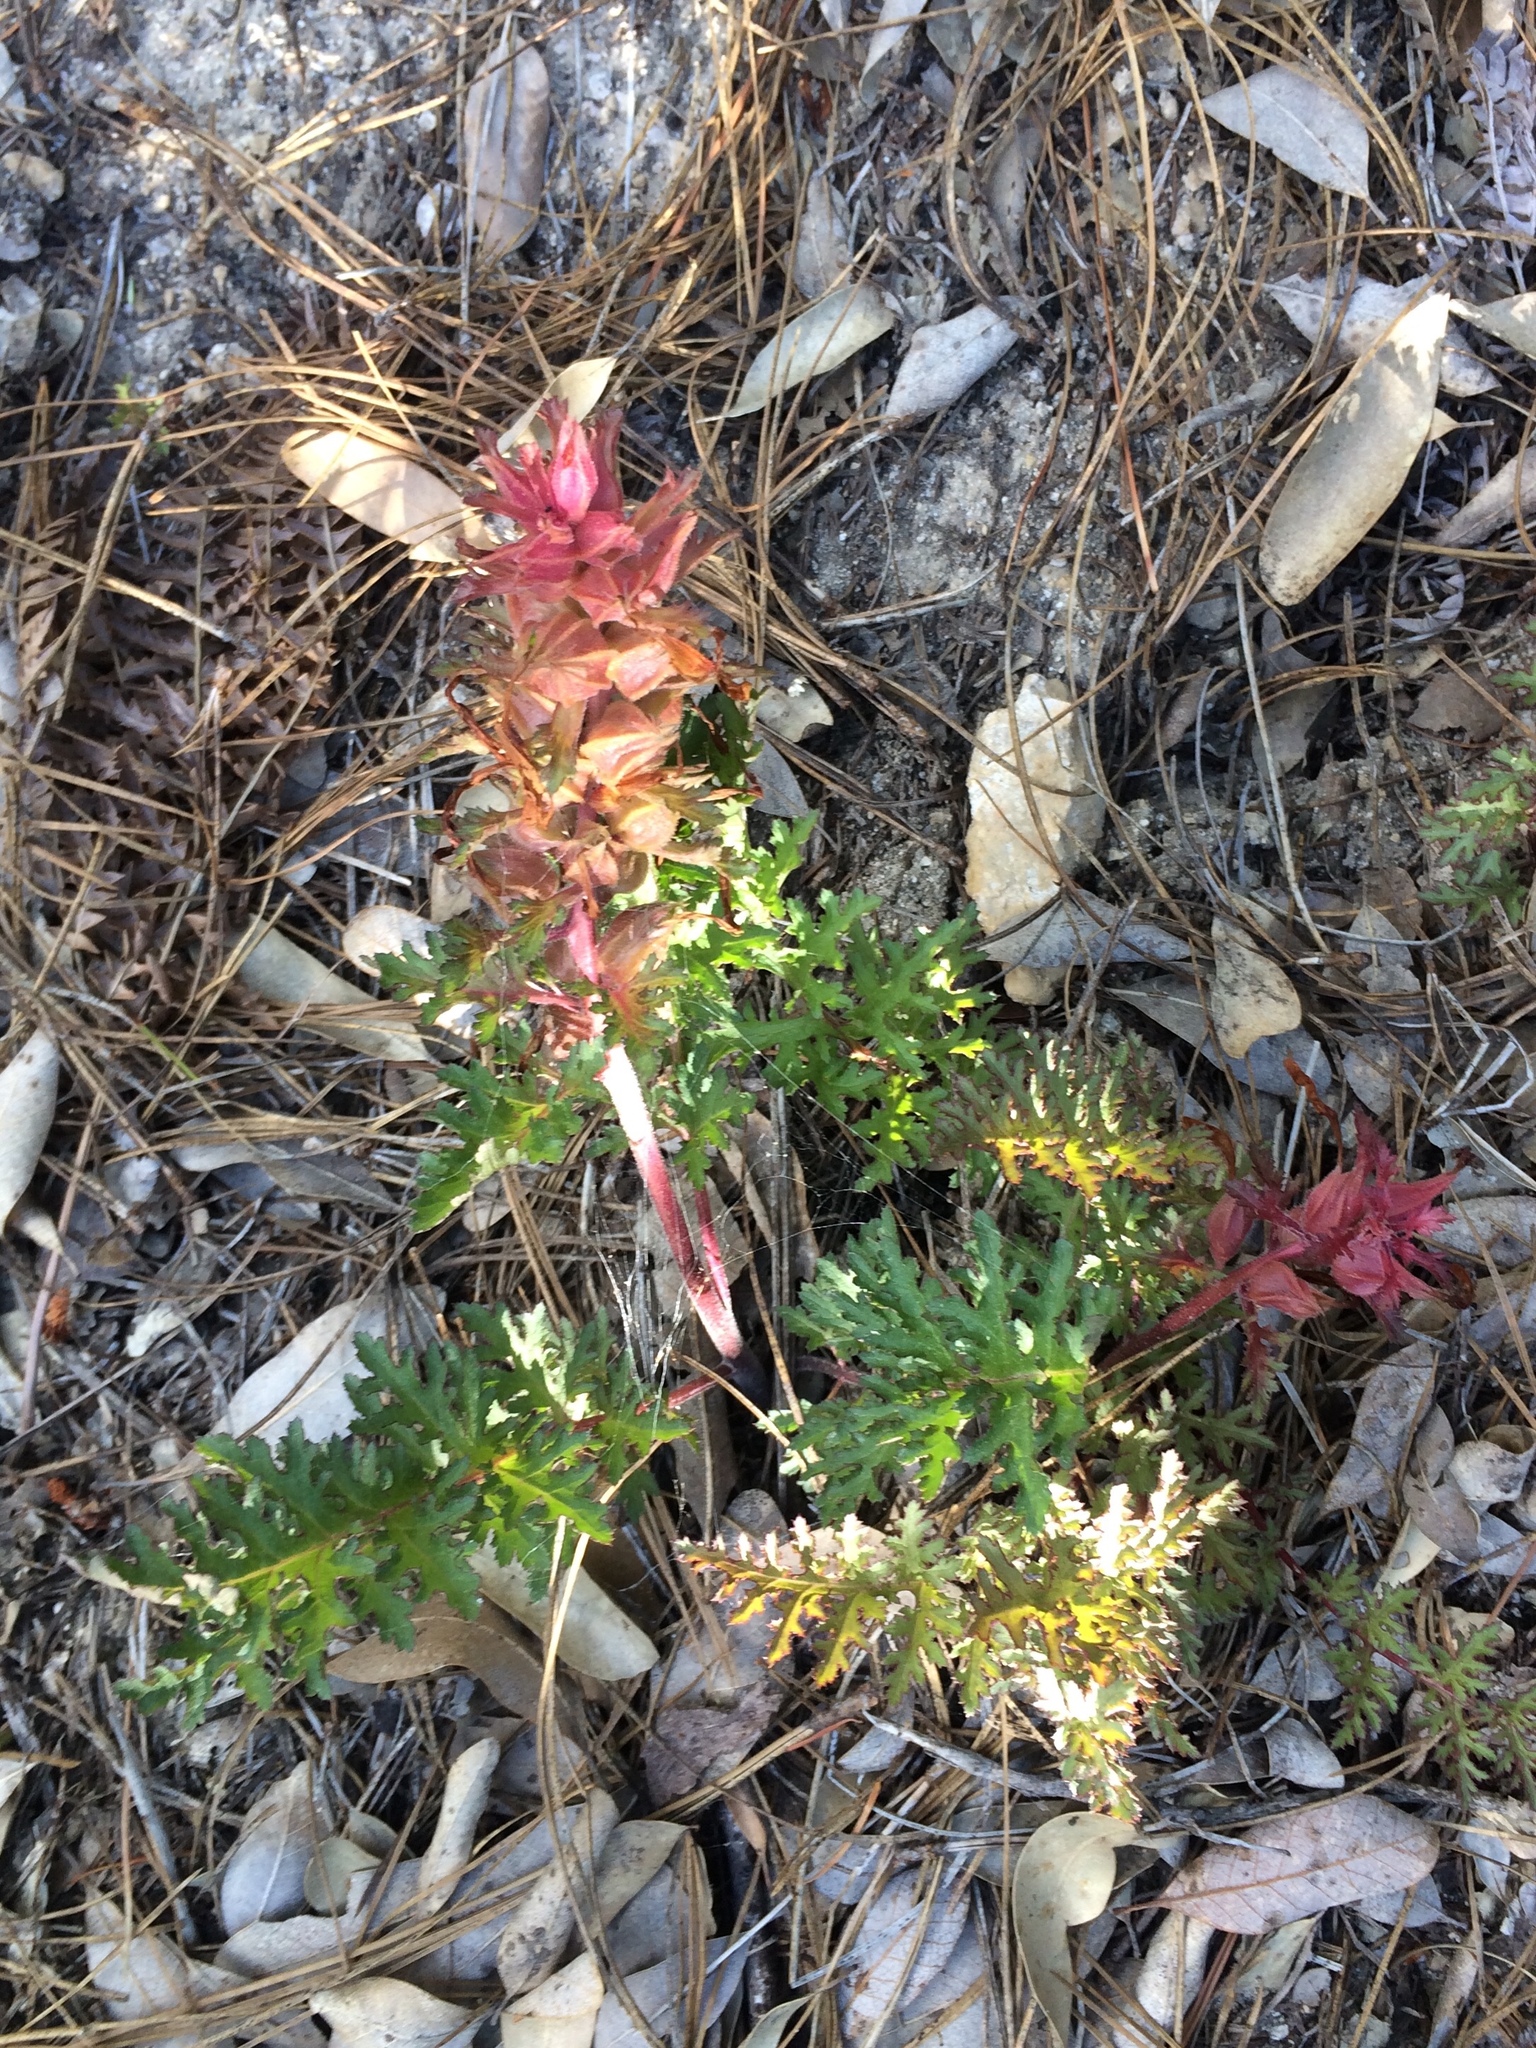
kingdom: Plantae
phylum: Tracheophyta
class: Magnoliopsida
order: Lamiales
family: Orobanchaceae
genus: Pedicularis
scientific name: Pedicularis densiflora
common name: Indian warrior
